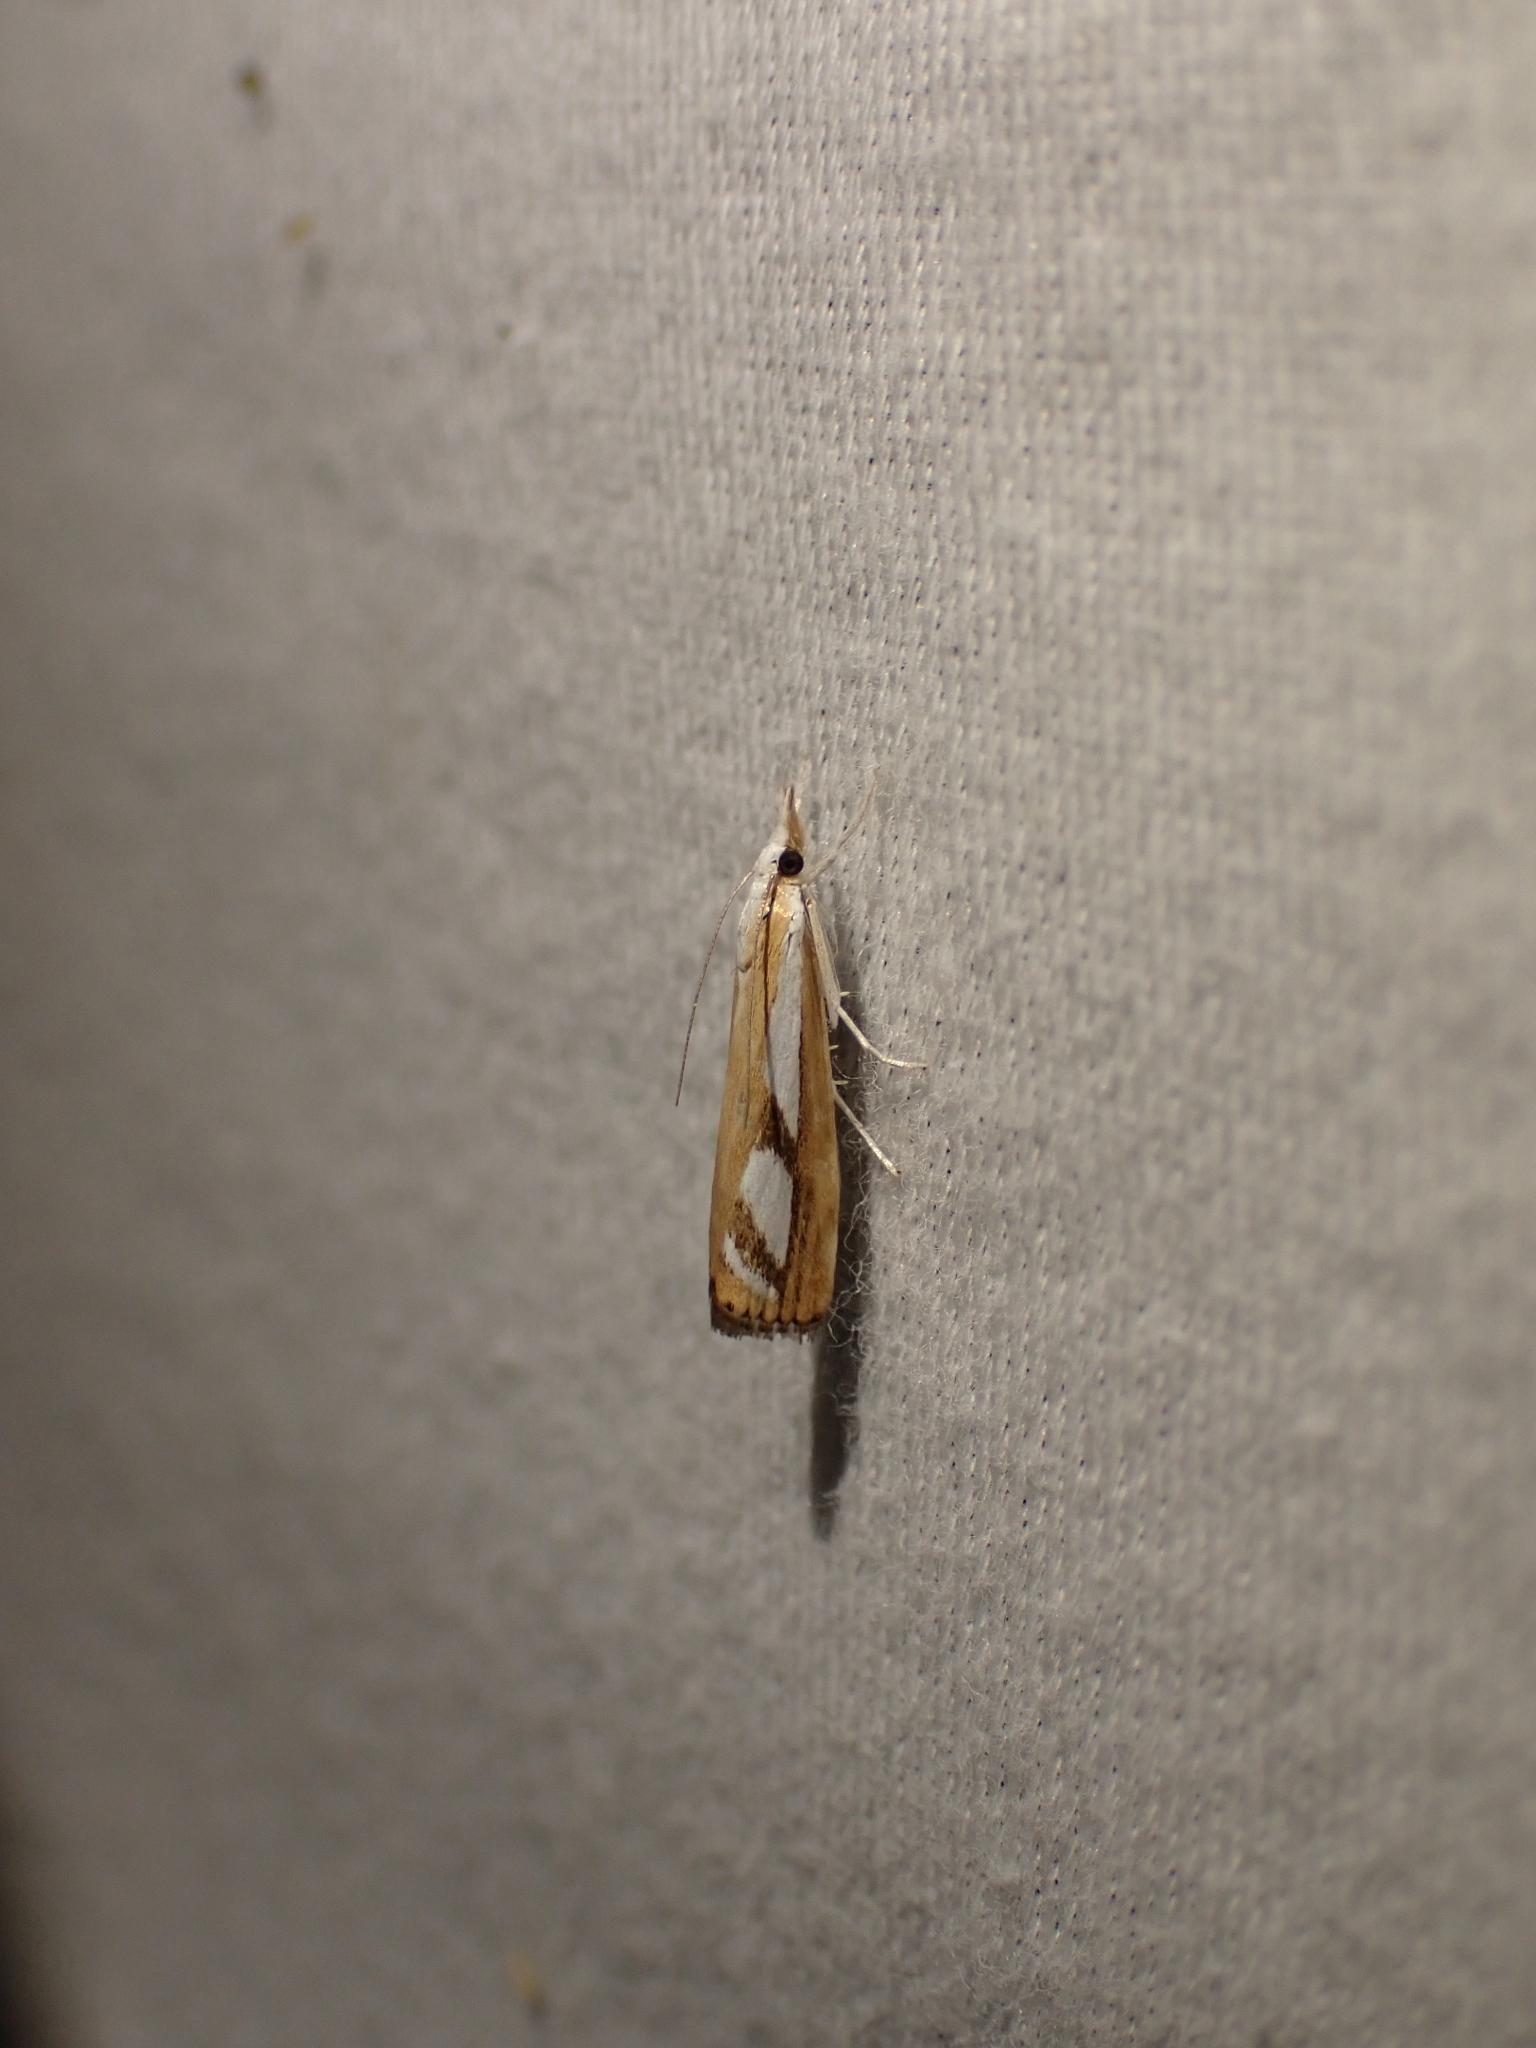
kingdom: Animalia
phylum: Arthropoda
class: Insecta
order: Lepidoptera
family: Crambidae
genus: Catoptria
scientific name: Catoptria latiradiellus
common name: Two-banded catoptria moth
